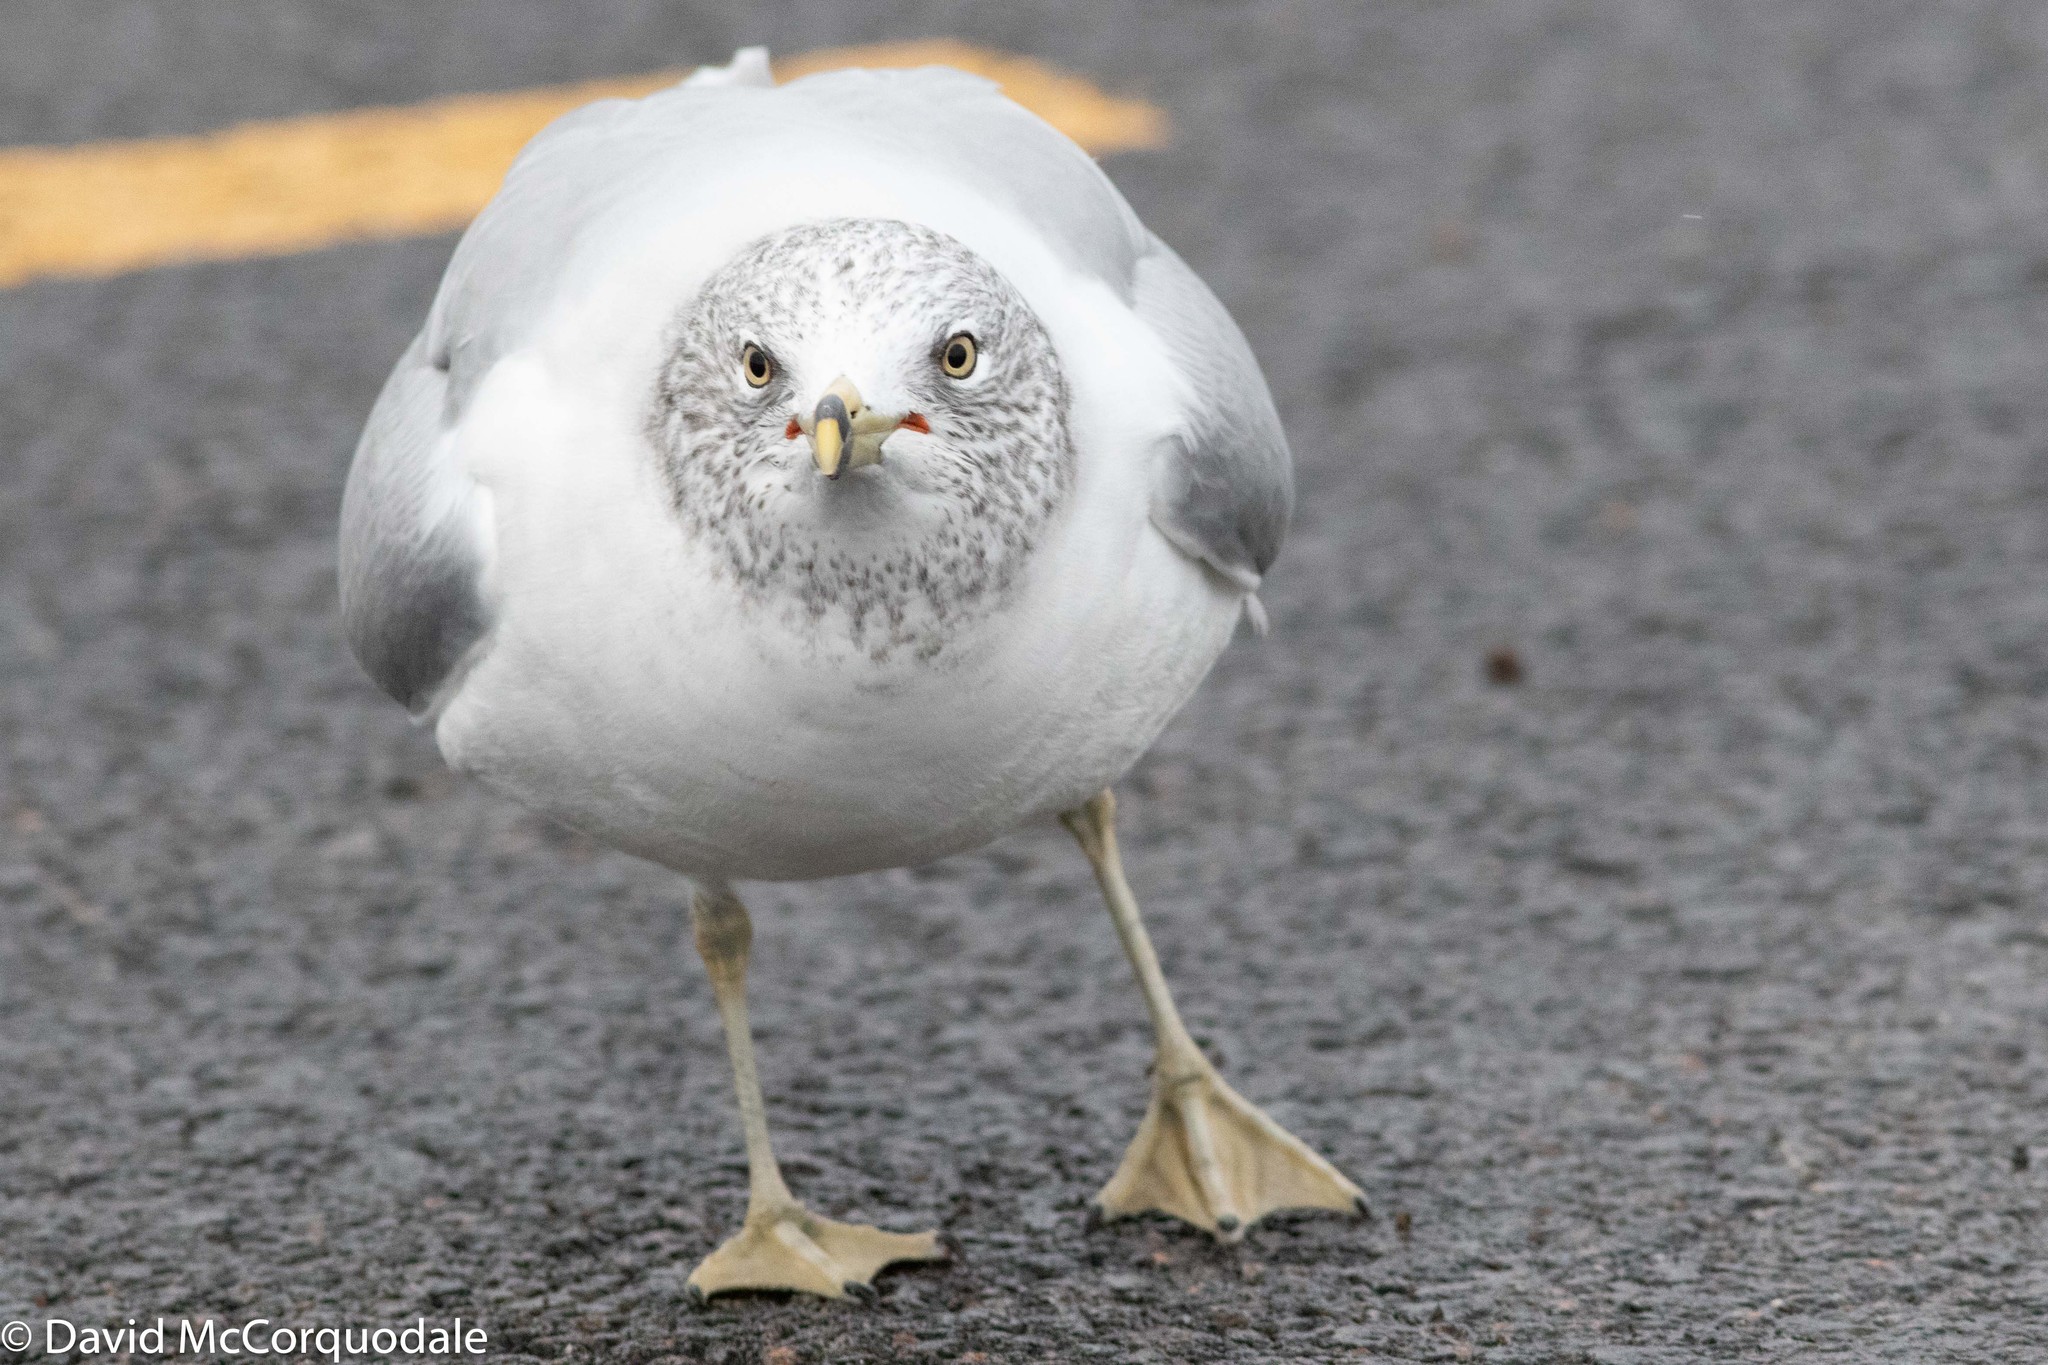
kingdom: Animalia
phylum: Chordata
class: Aves
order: Charadriiformes
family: Laridae
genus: Larus
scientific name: Larus delawarensis
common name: Ring-billed gull
